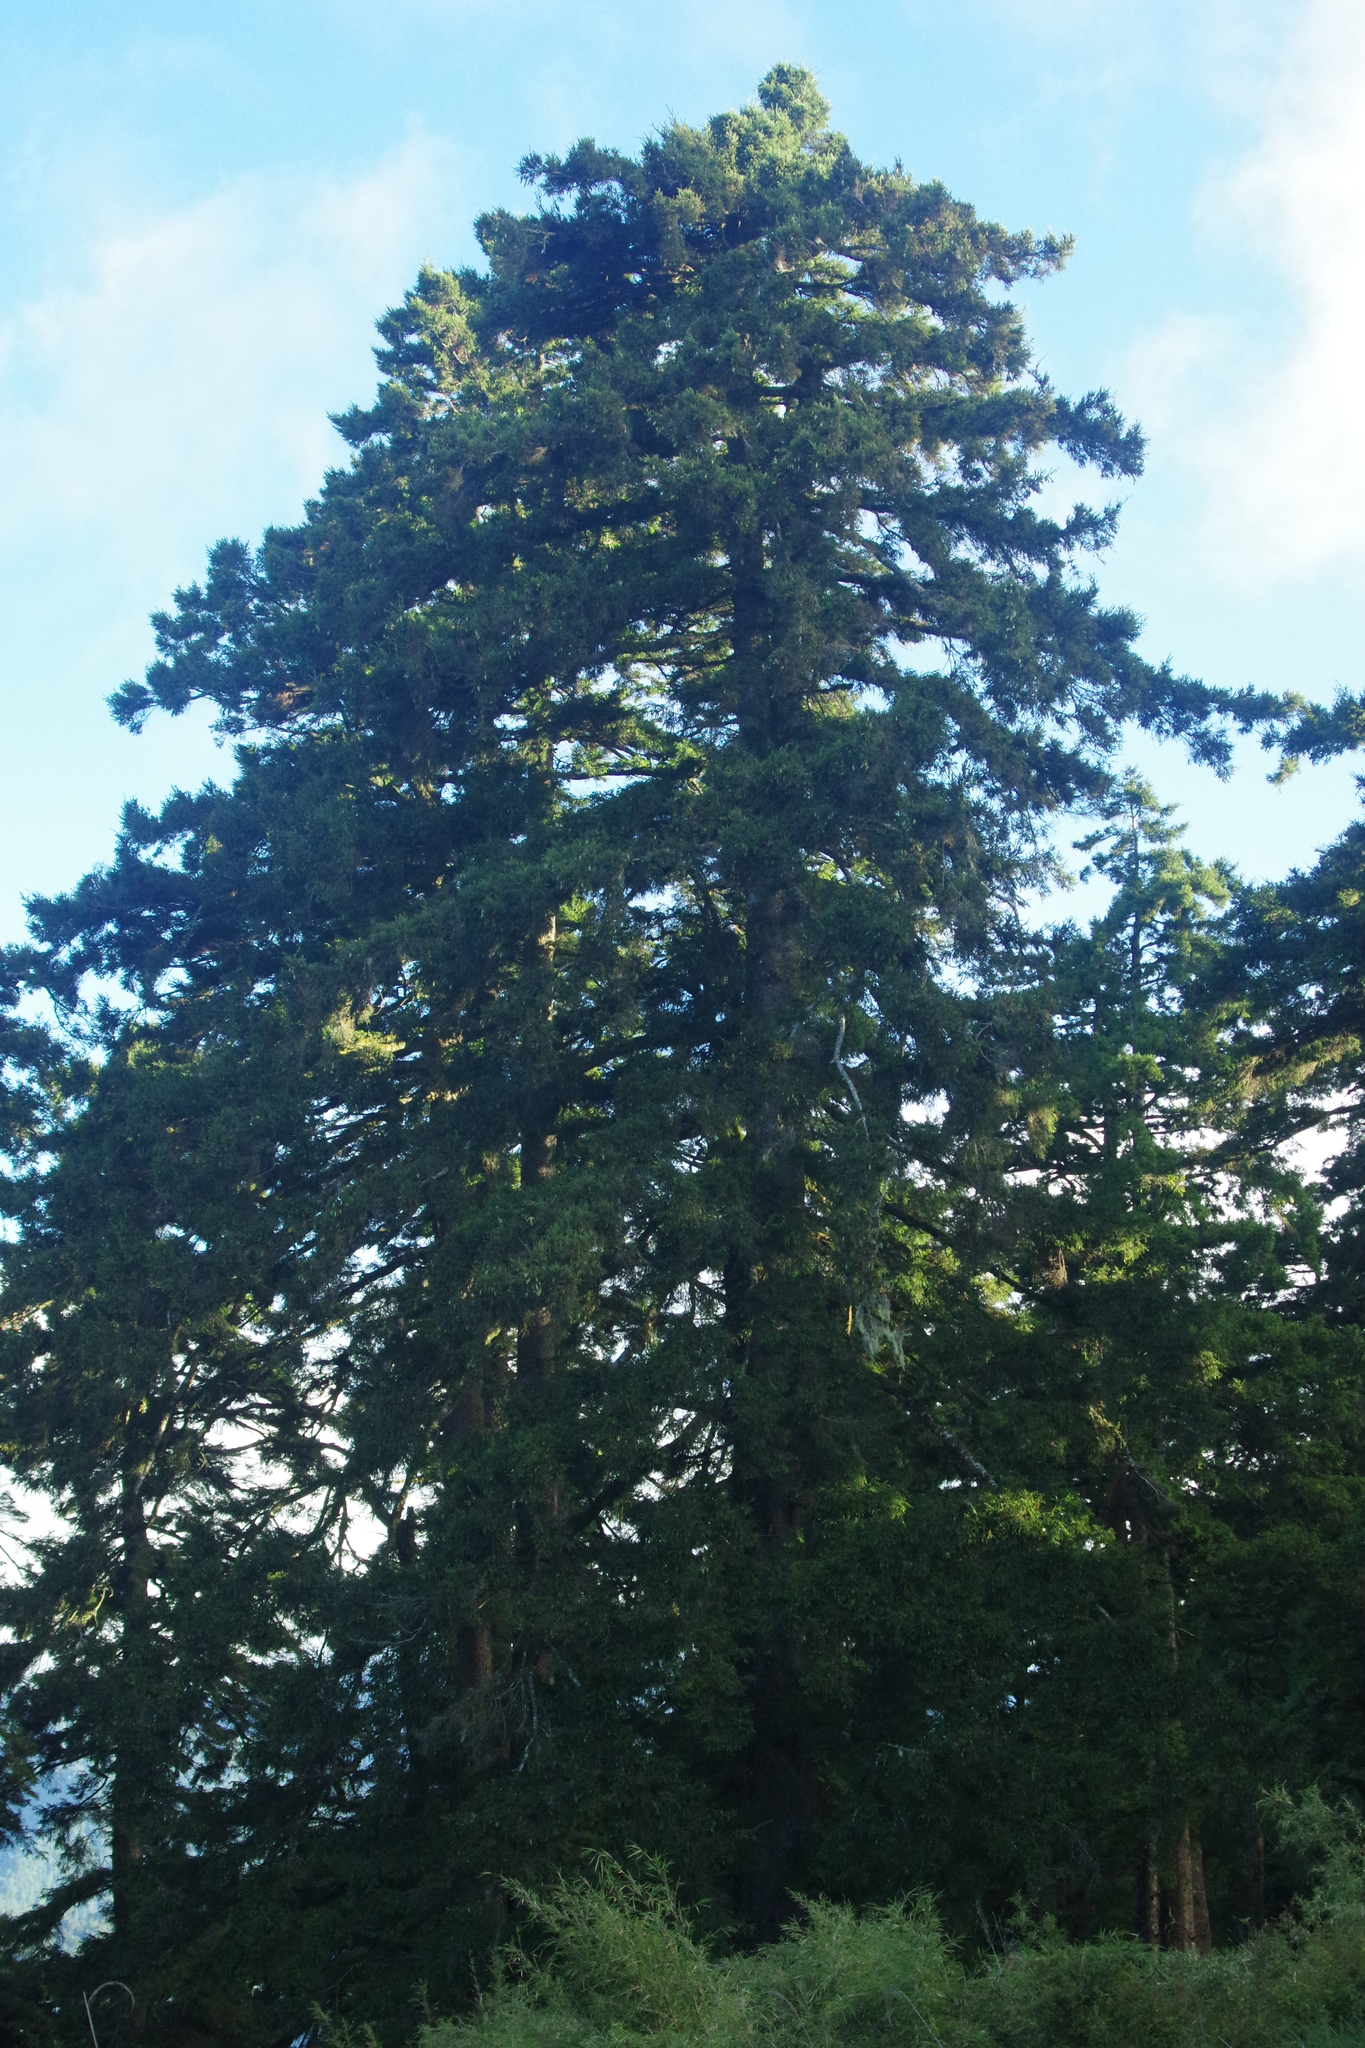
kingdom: Plantae
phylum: Tracheophyta
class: Pinopsida
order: Pinales
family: Pinaceae
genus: Picea
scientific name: Picea morrisonicola
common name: Mount morrison spruce
